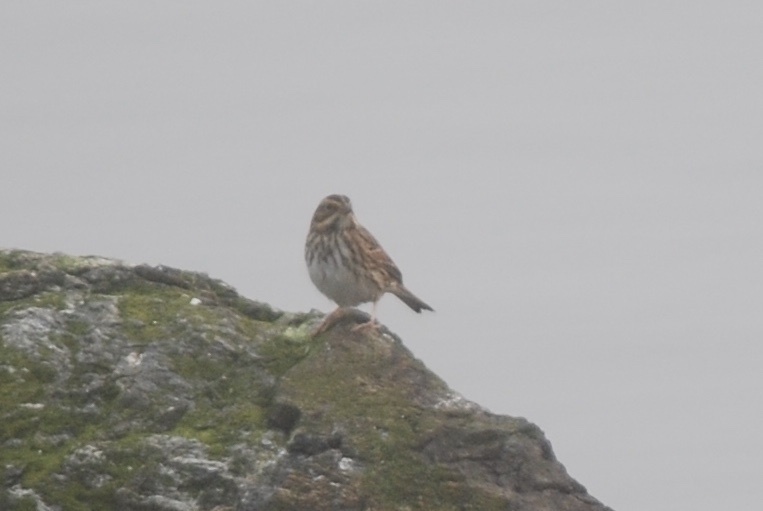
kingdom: Animalia
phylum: Chordata
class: Aves
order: Passeriformes
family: Passerellidae
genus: Passerculus
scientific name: Passerculus sandwichensis
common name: Savannah sparrow
